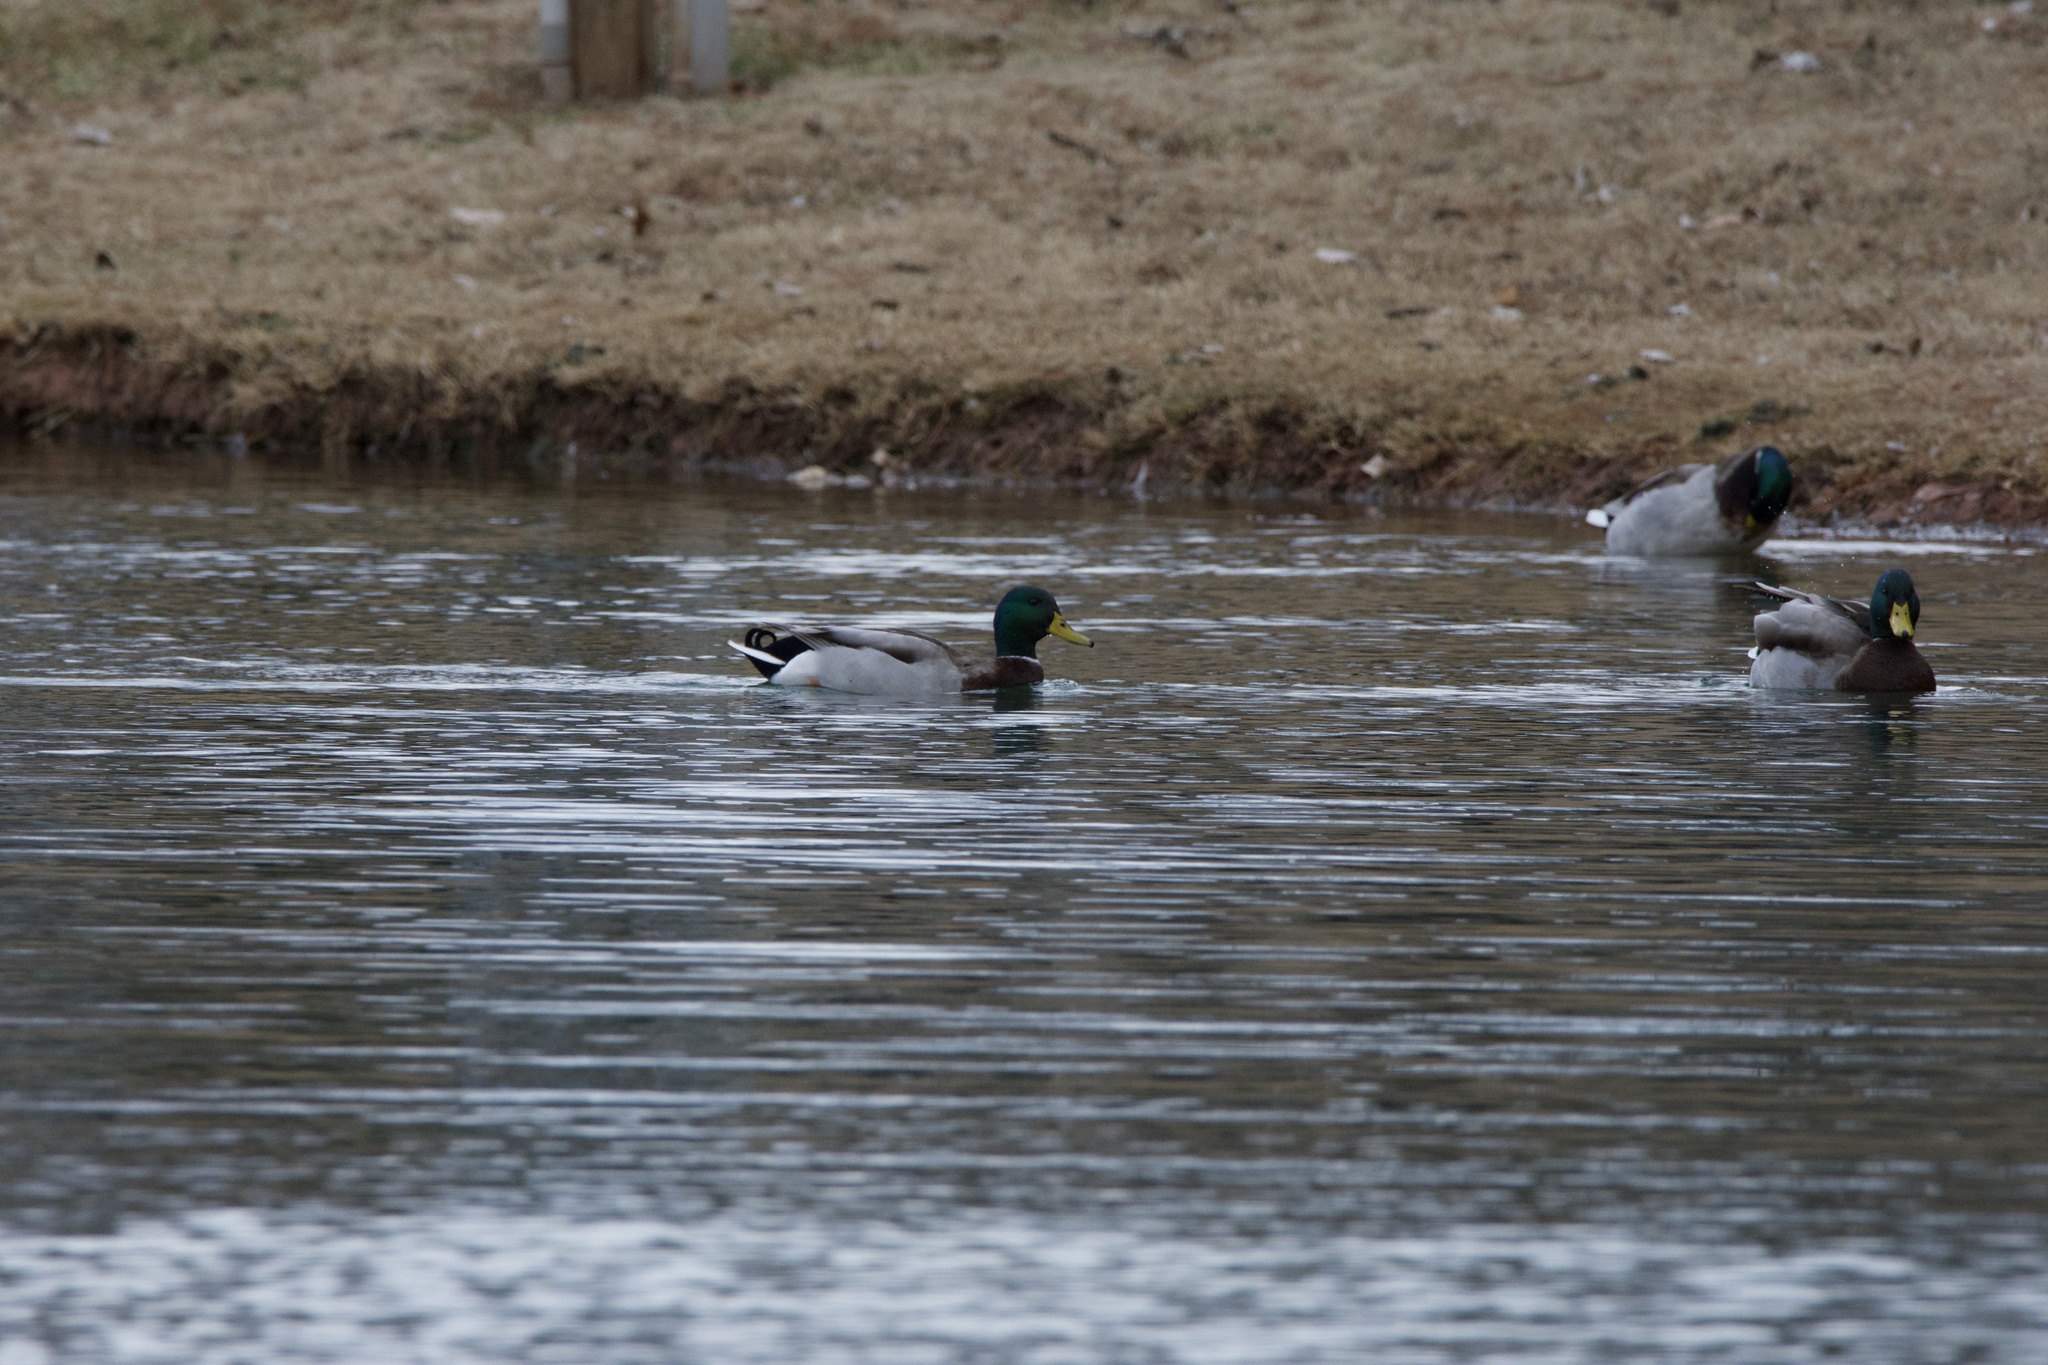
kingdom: Animalia
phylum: Chordata
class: Aves
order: Anseriformes
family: Anatidae
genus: Anas
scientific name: Anas platyrhynchos
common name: Mallard
